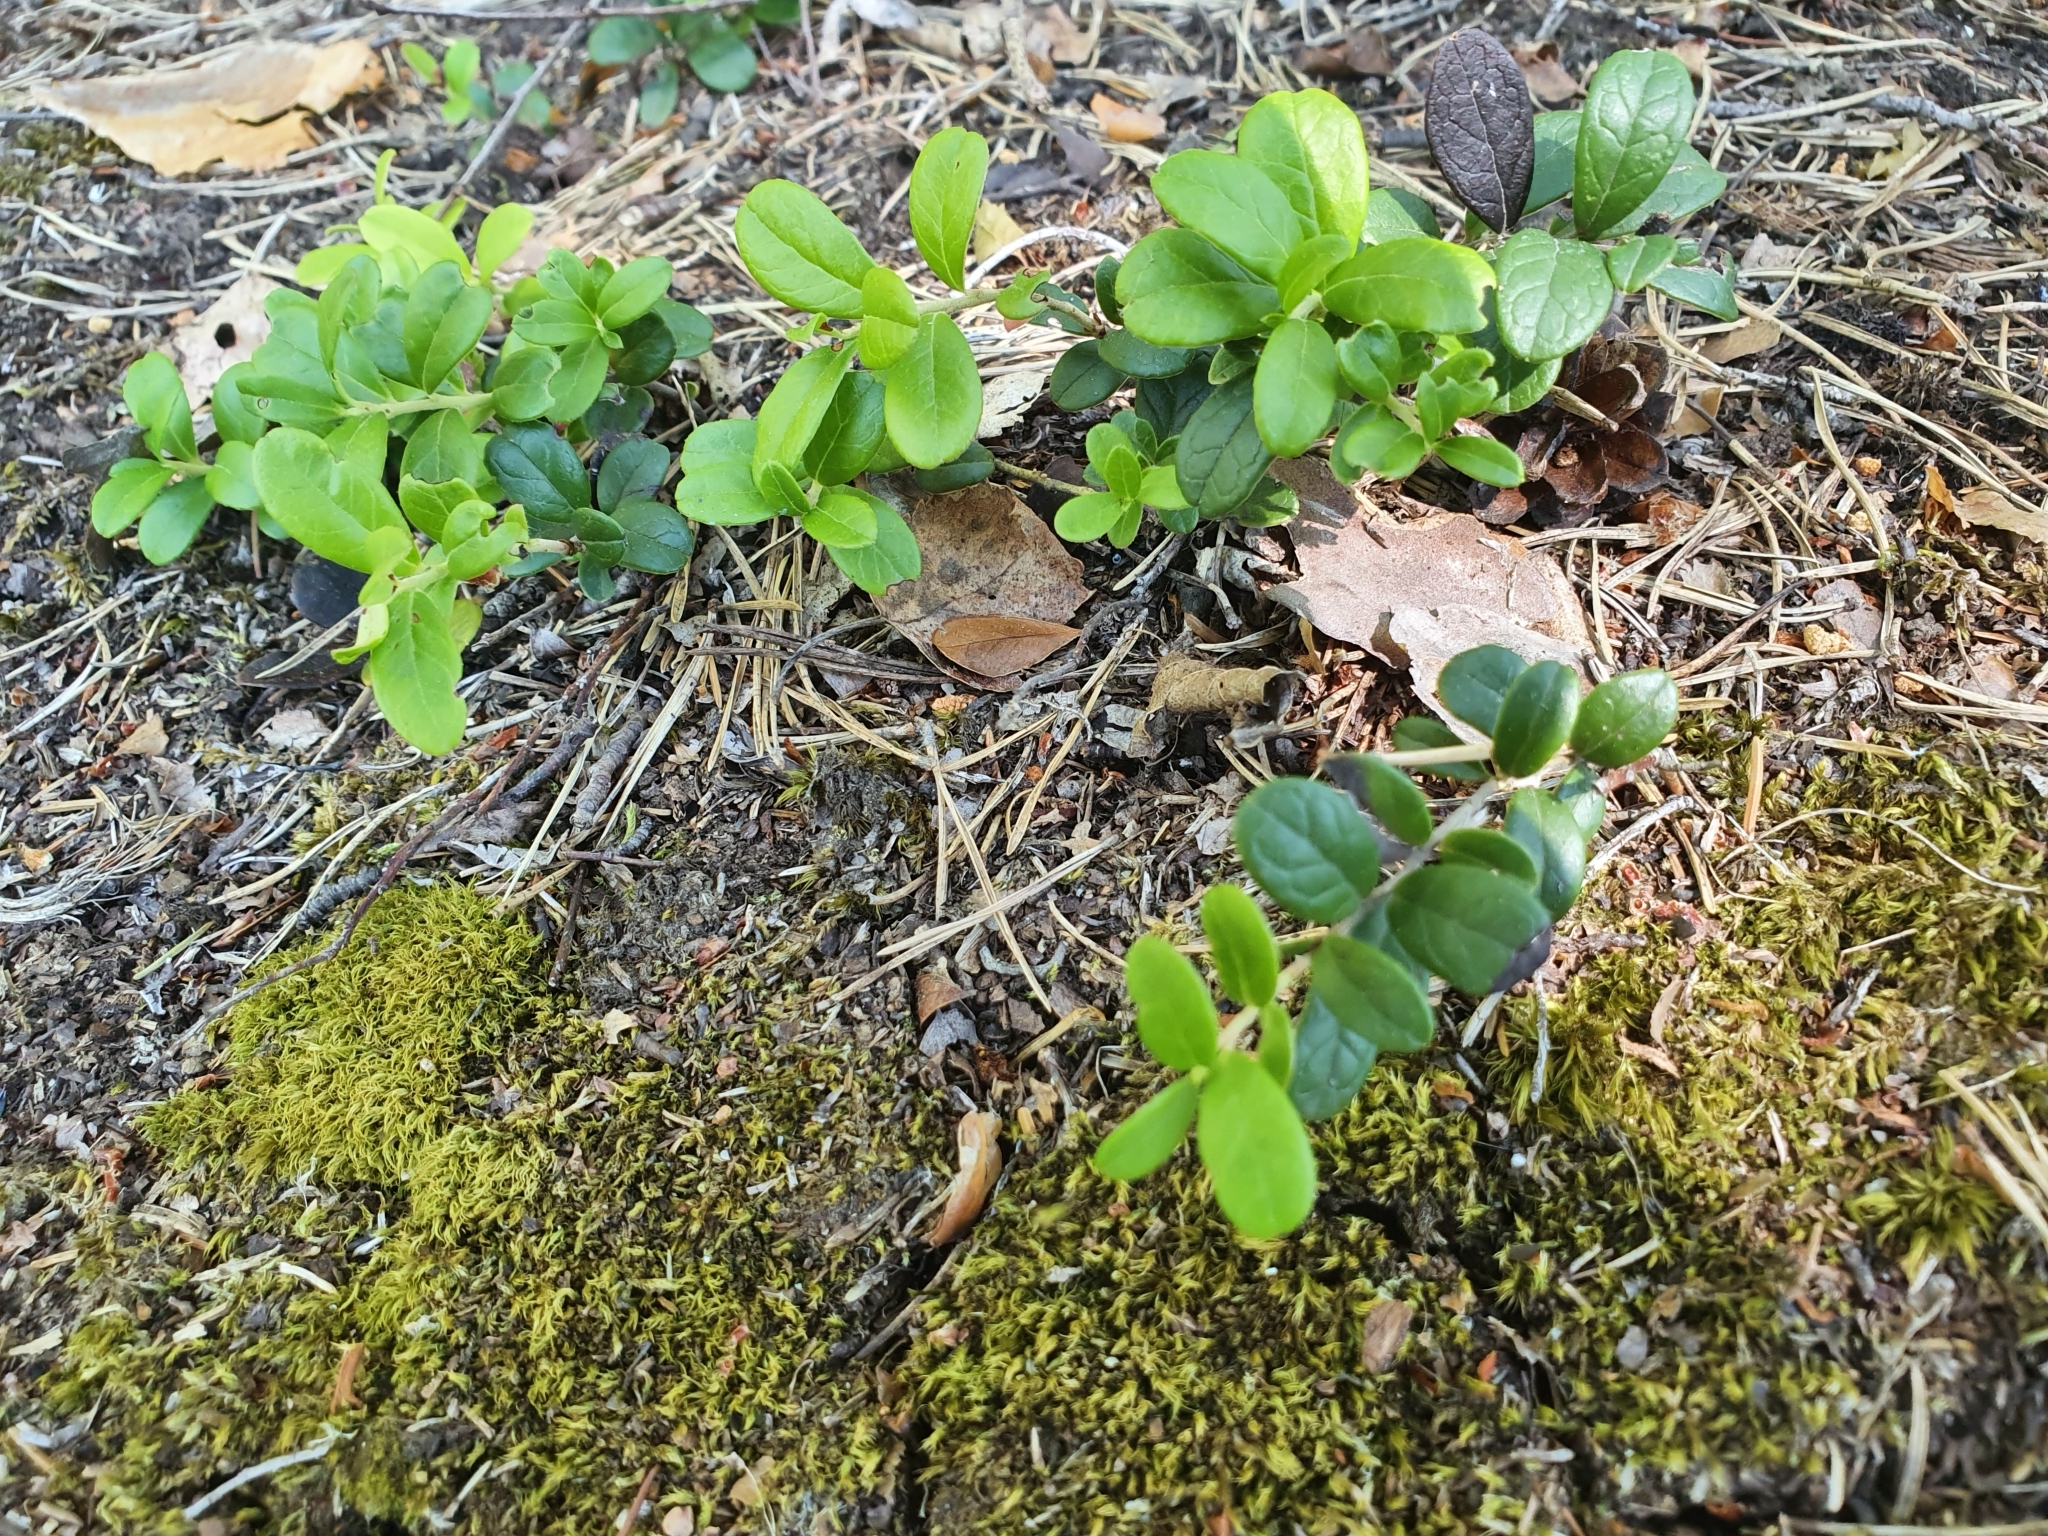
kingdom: Plantae
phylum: Tracheophyta
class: Magnoliopsida
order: Ericales
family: Ericaceae
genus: Vaccinium
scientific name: Vaccinium vitis-idaea
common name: Cowberry
